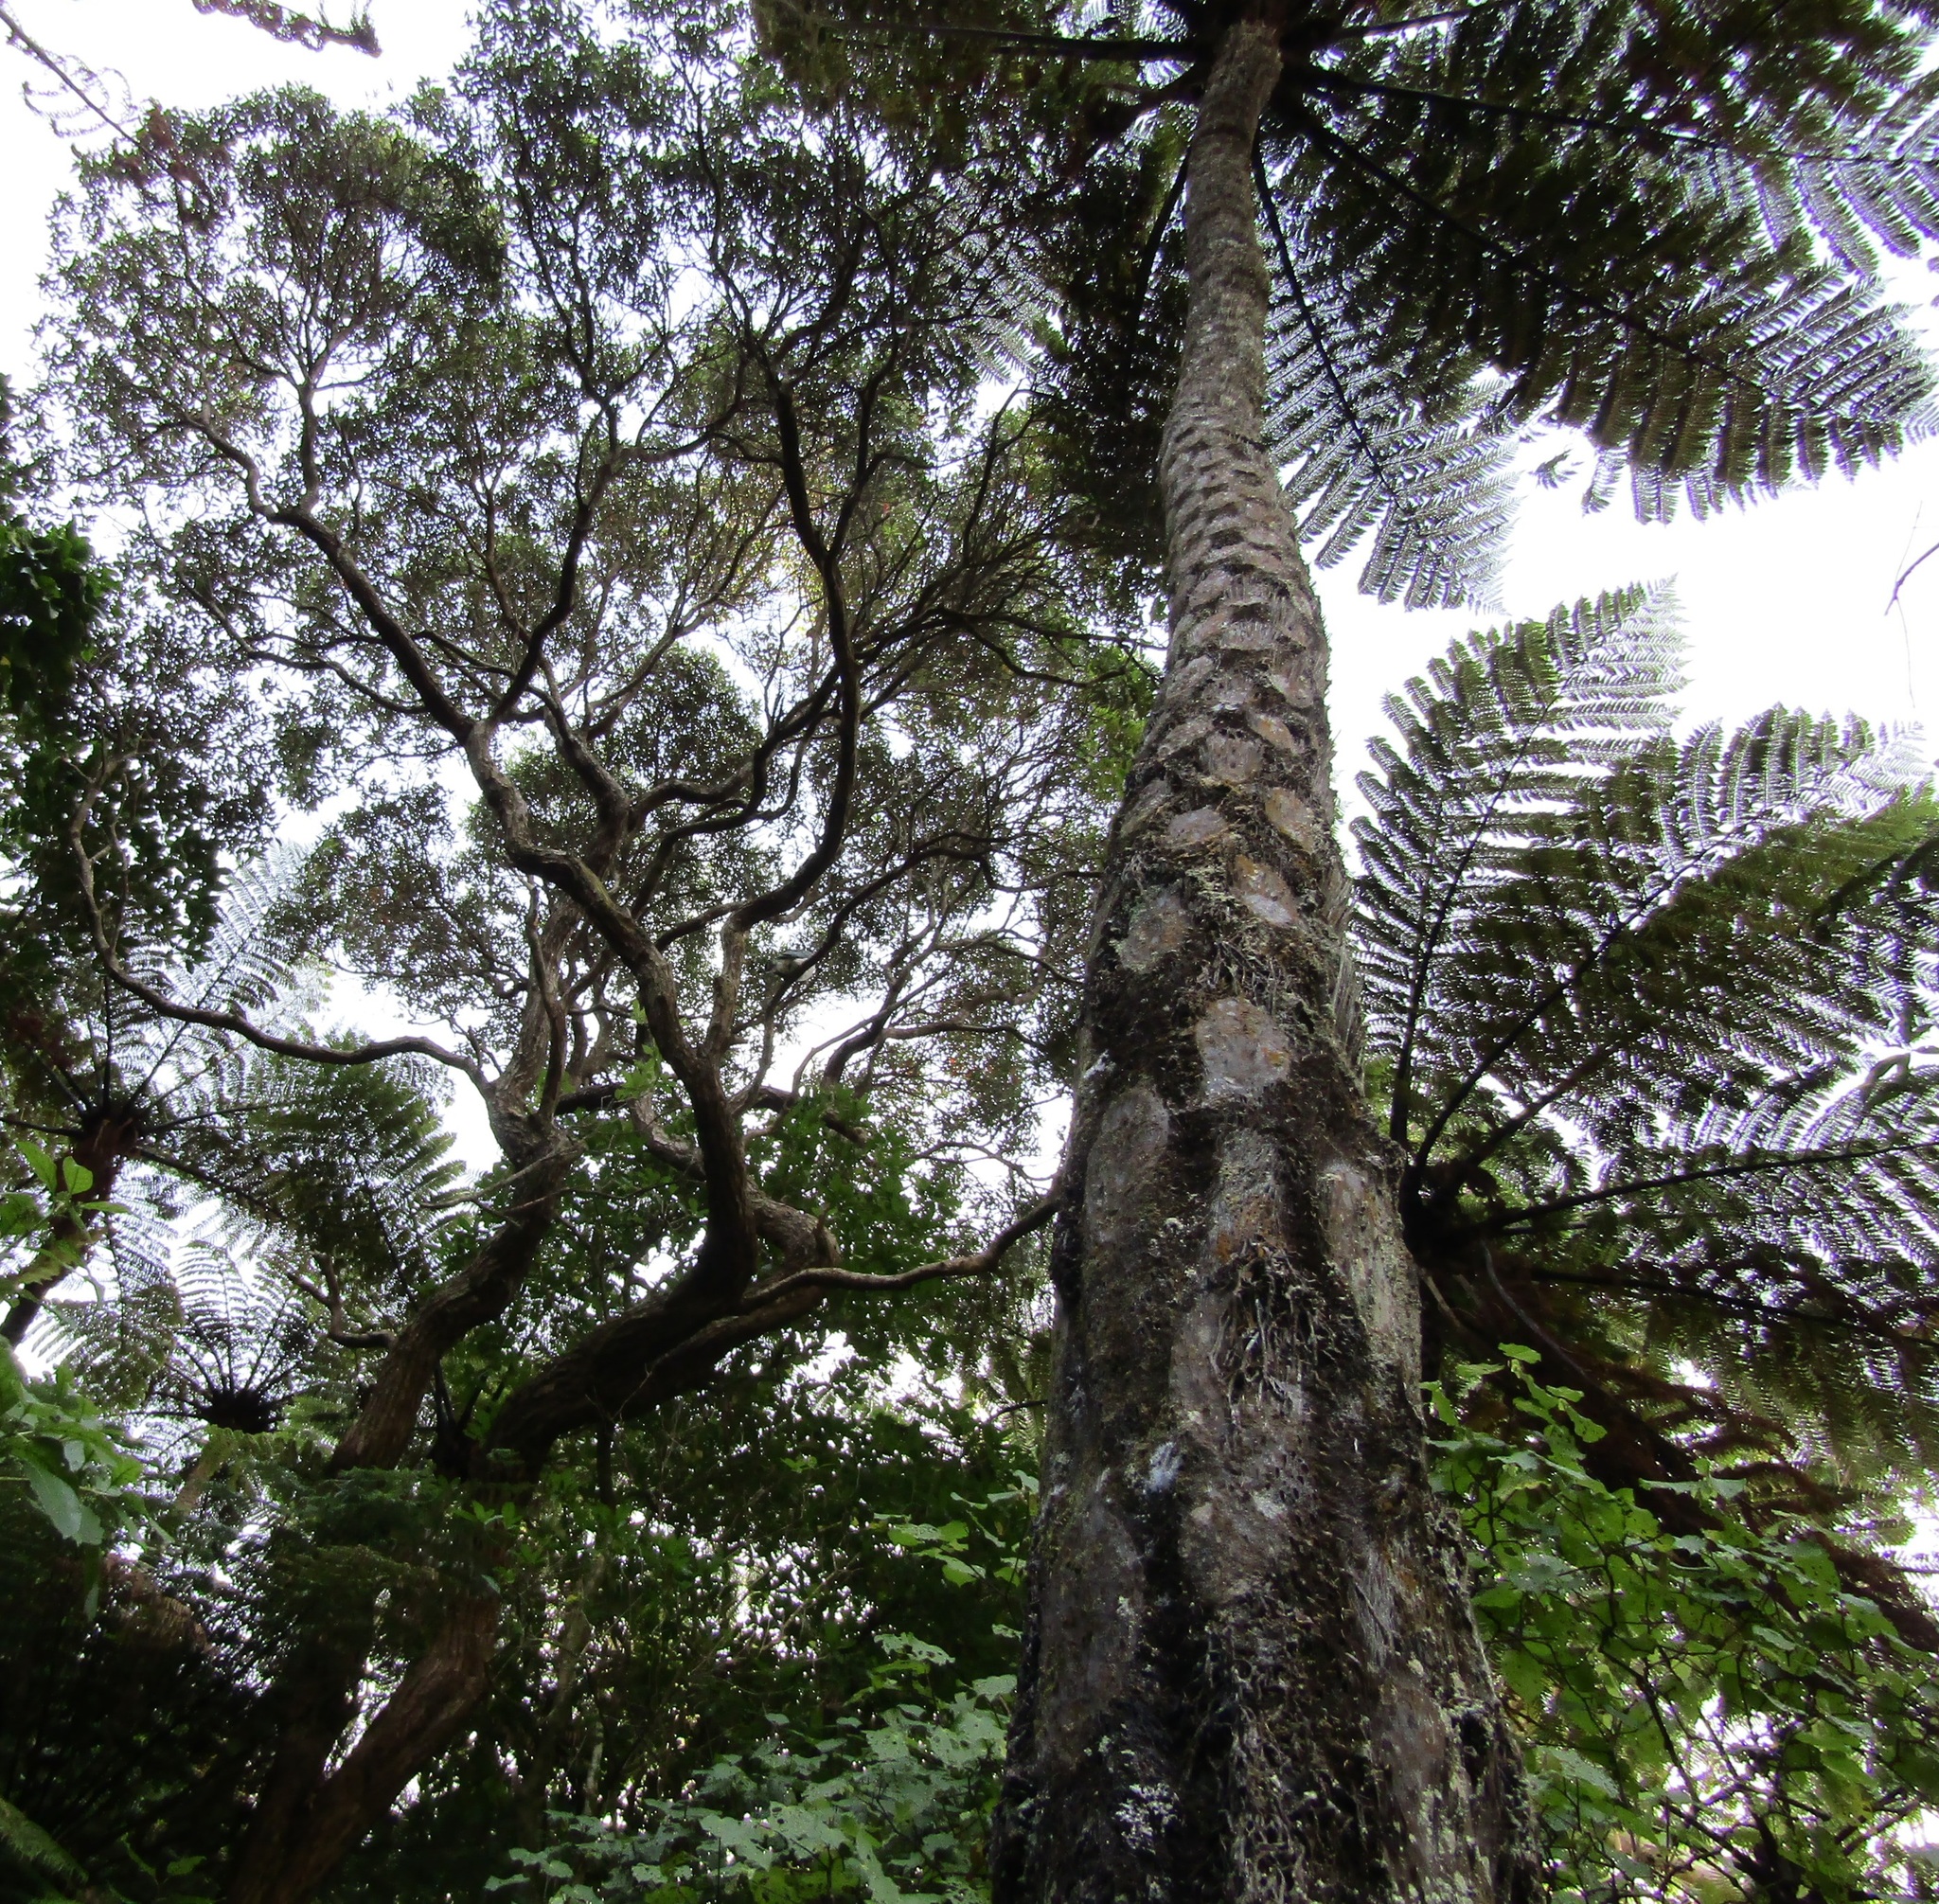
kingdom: Plantae
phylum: Tracheophyta
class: Polypodiopsida
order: Cyatheales
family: Cyatheaceae
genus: Sphaeropteris
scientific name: Sphaeropteris medullaris
